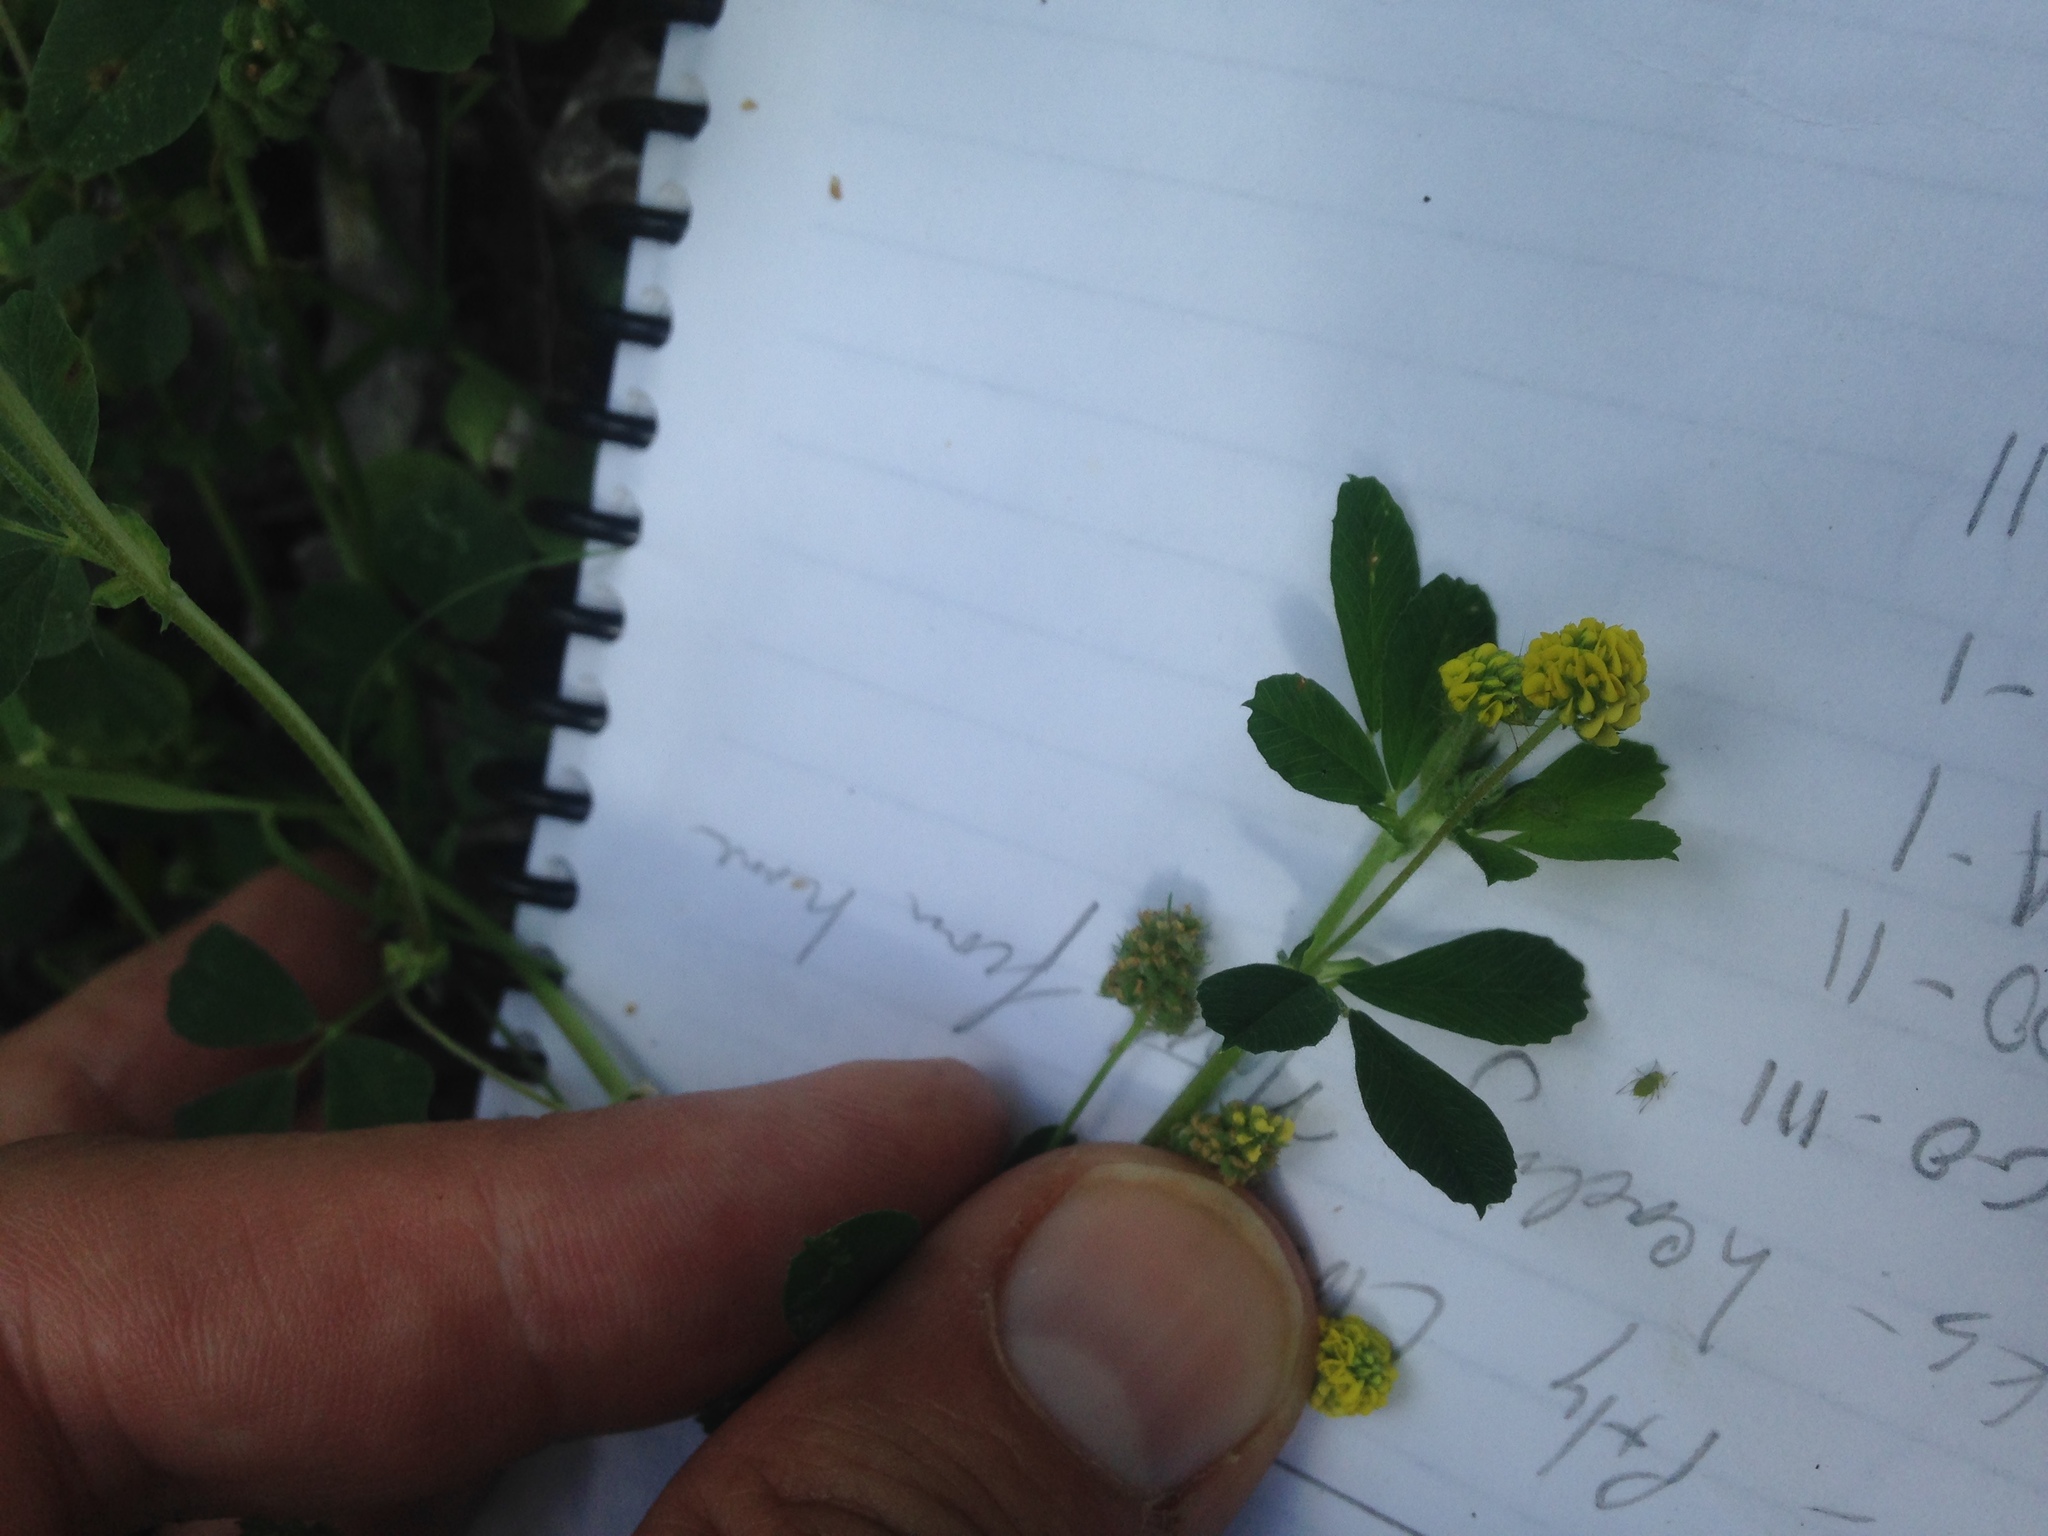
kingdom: Plantae
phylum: Tracheophyta
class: Magnoliopsida
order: Fabales
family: Fabaceae
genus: Medicago
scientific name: Medicago lupulina
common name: Black medick
